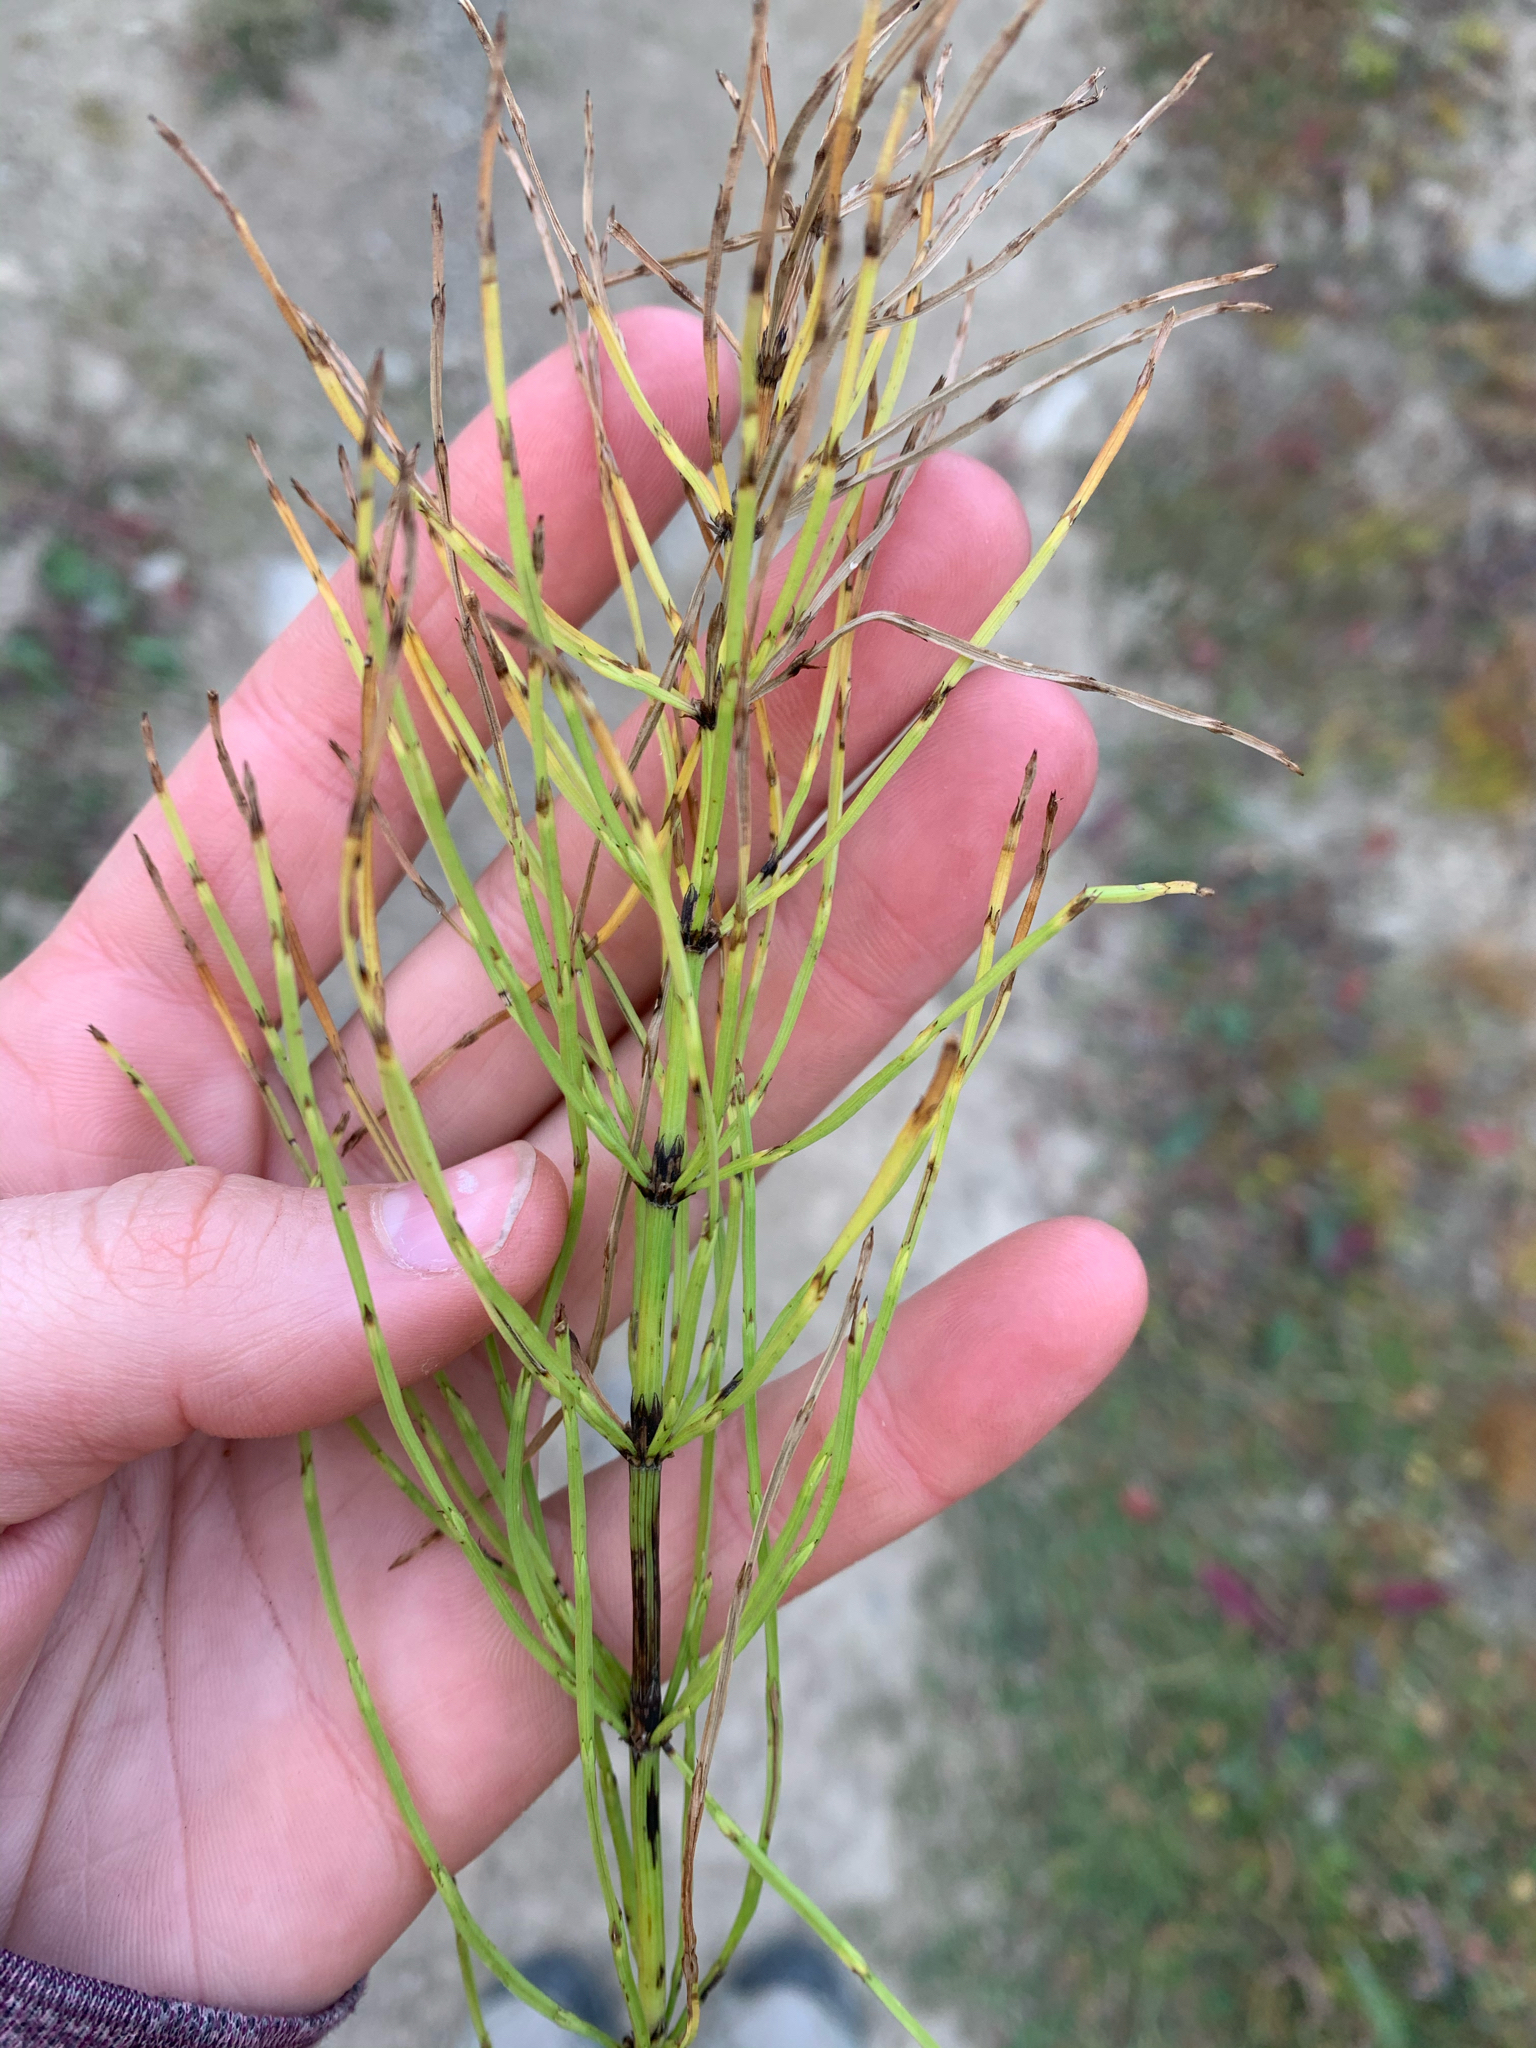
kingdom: Plantae
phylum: Tracheophyta
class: Polypodiopsida
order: Equisetales
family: Equisetaceae
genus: Equisetum
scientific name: Equisetum arvense
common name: Field horsetail
